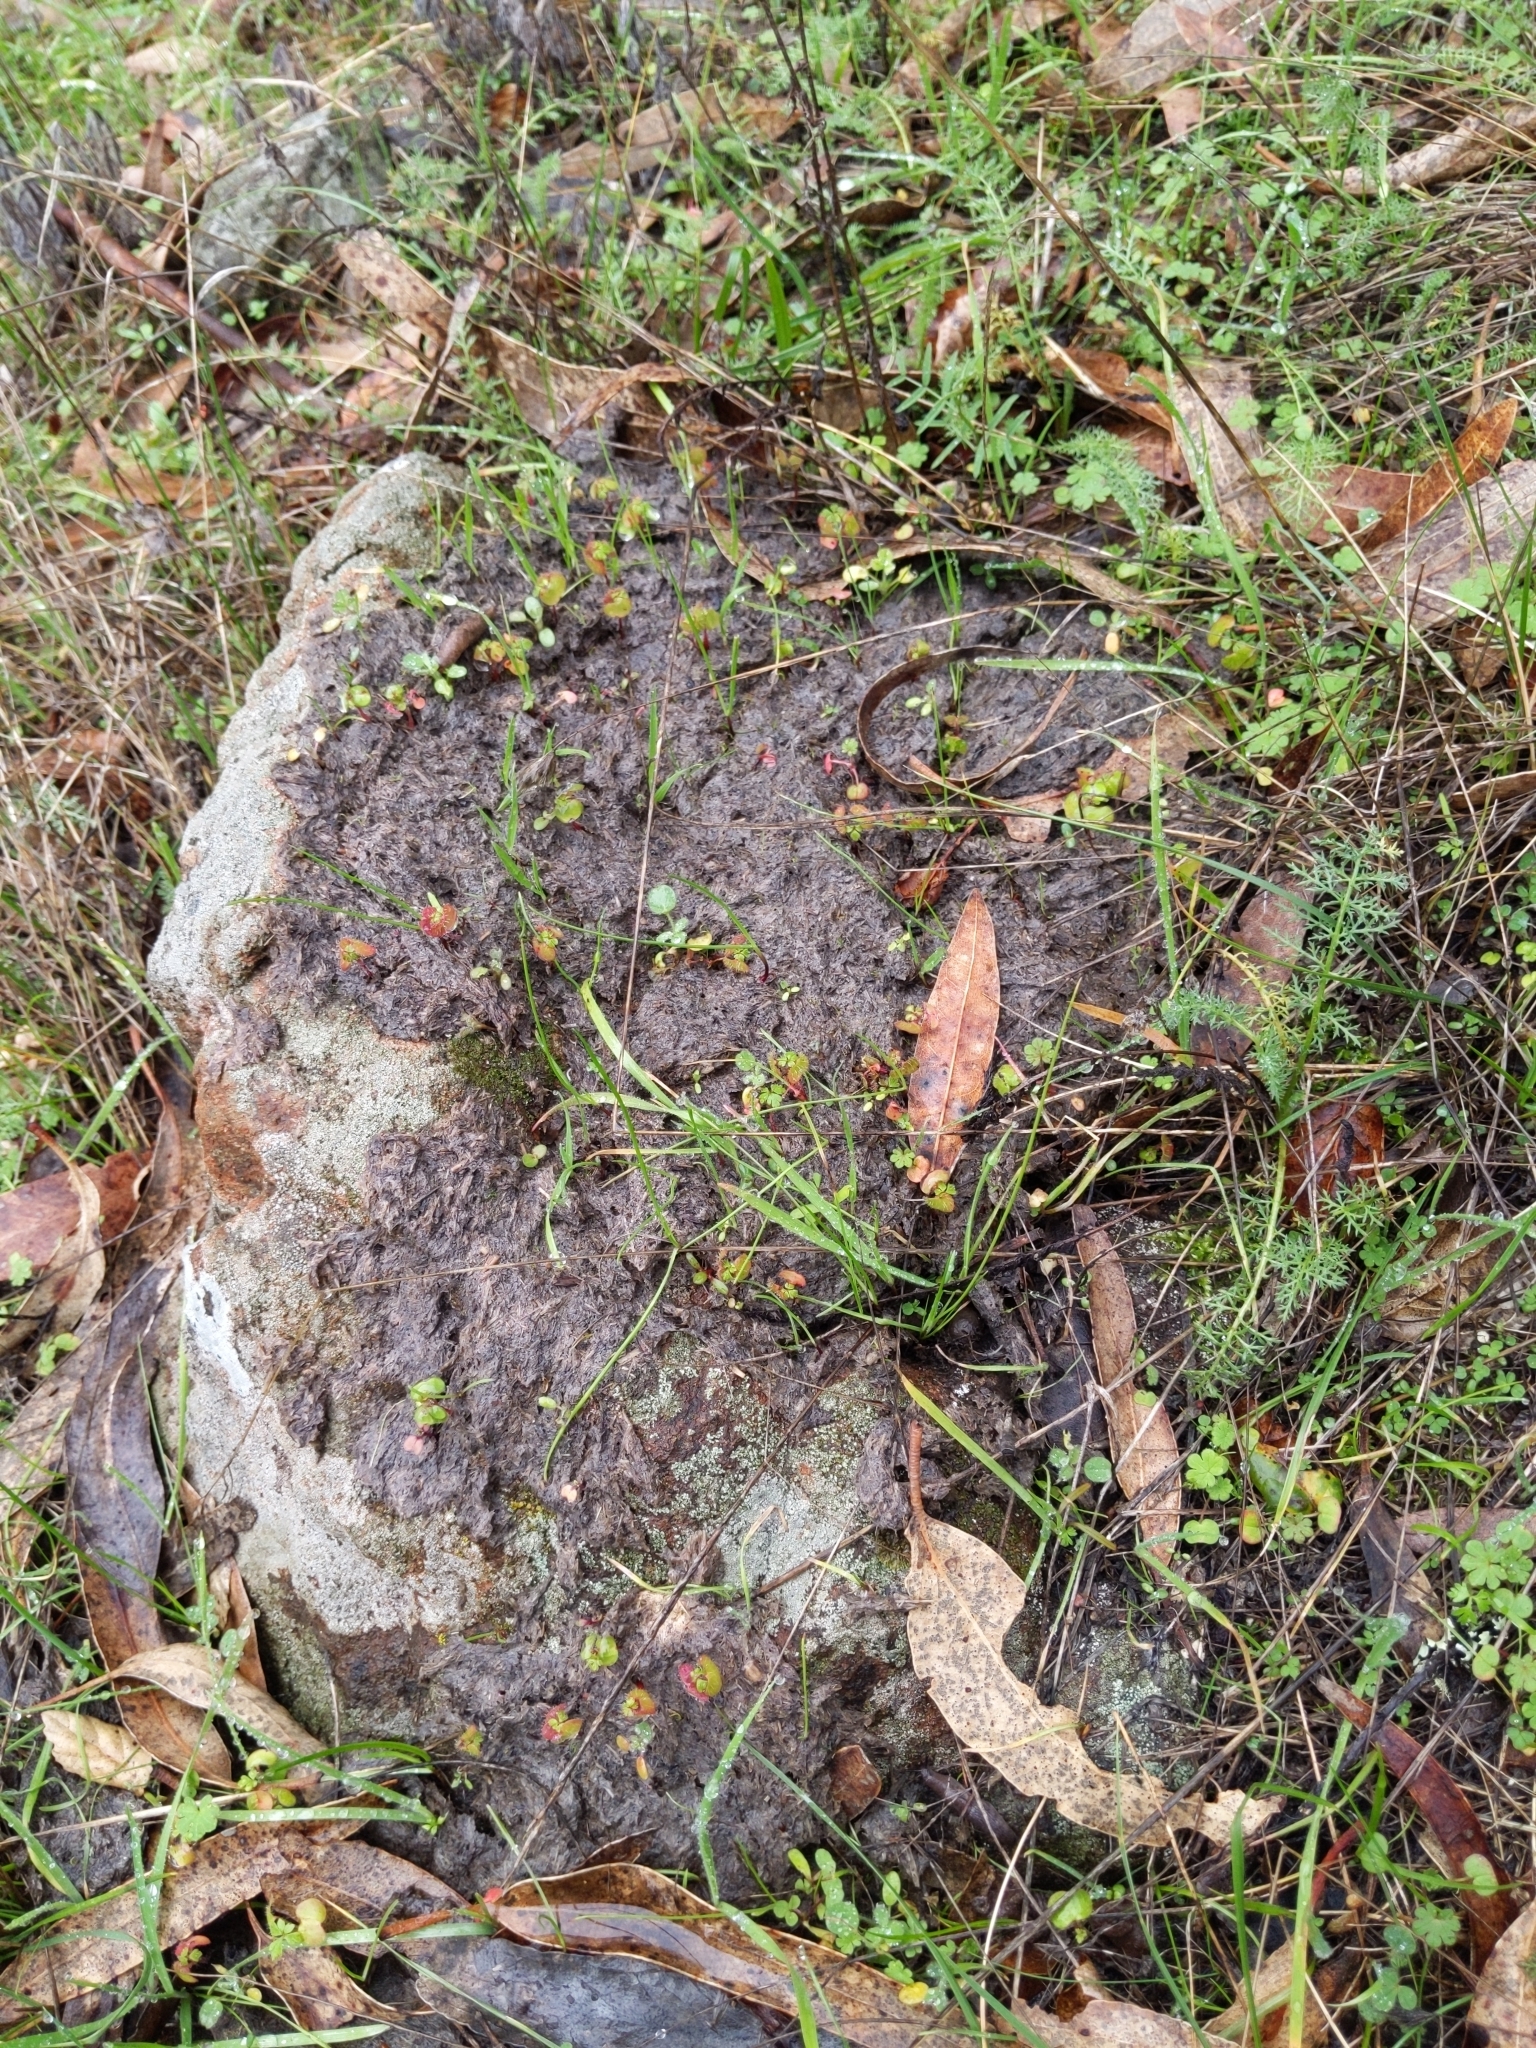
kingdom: Plantae
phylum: Tracheophyta
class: Magnoliopsida
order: Geraniales
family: Geraniaceae
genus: Geranium
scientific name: Geranium
